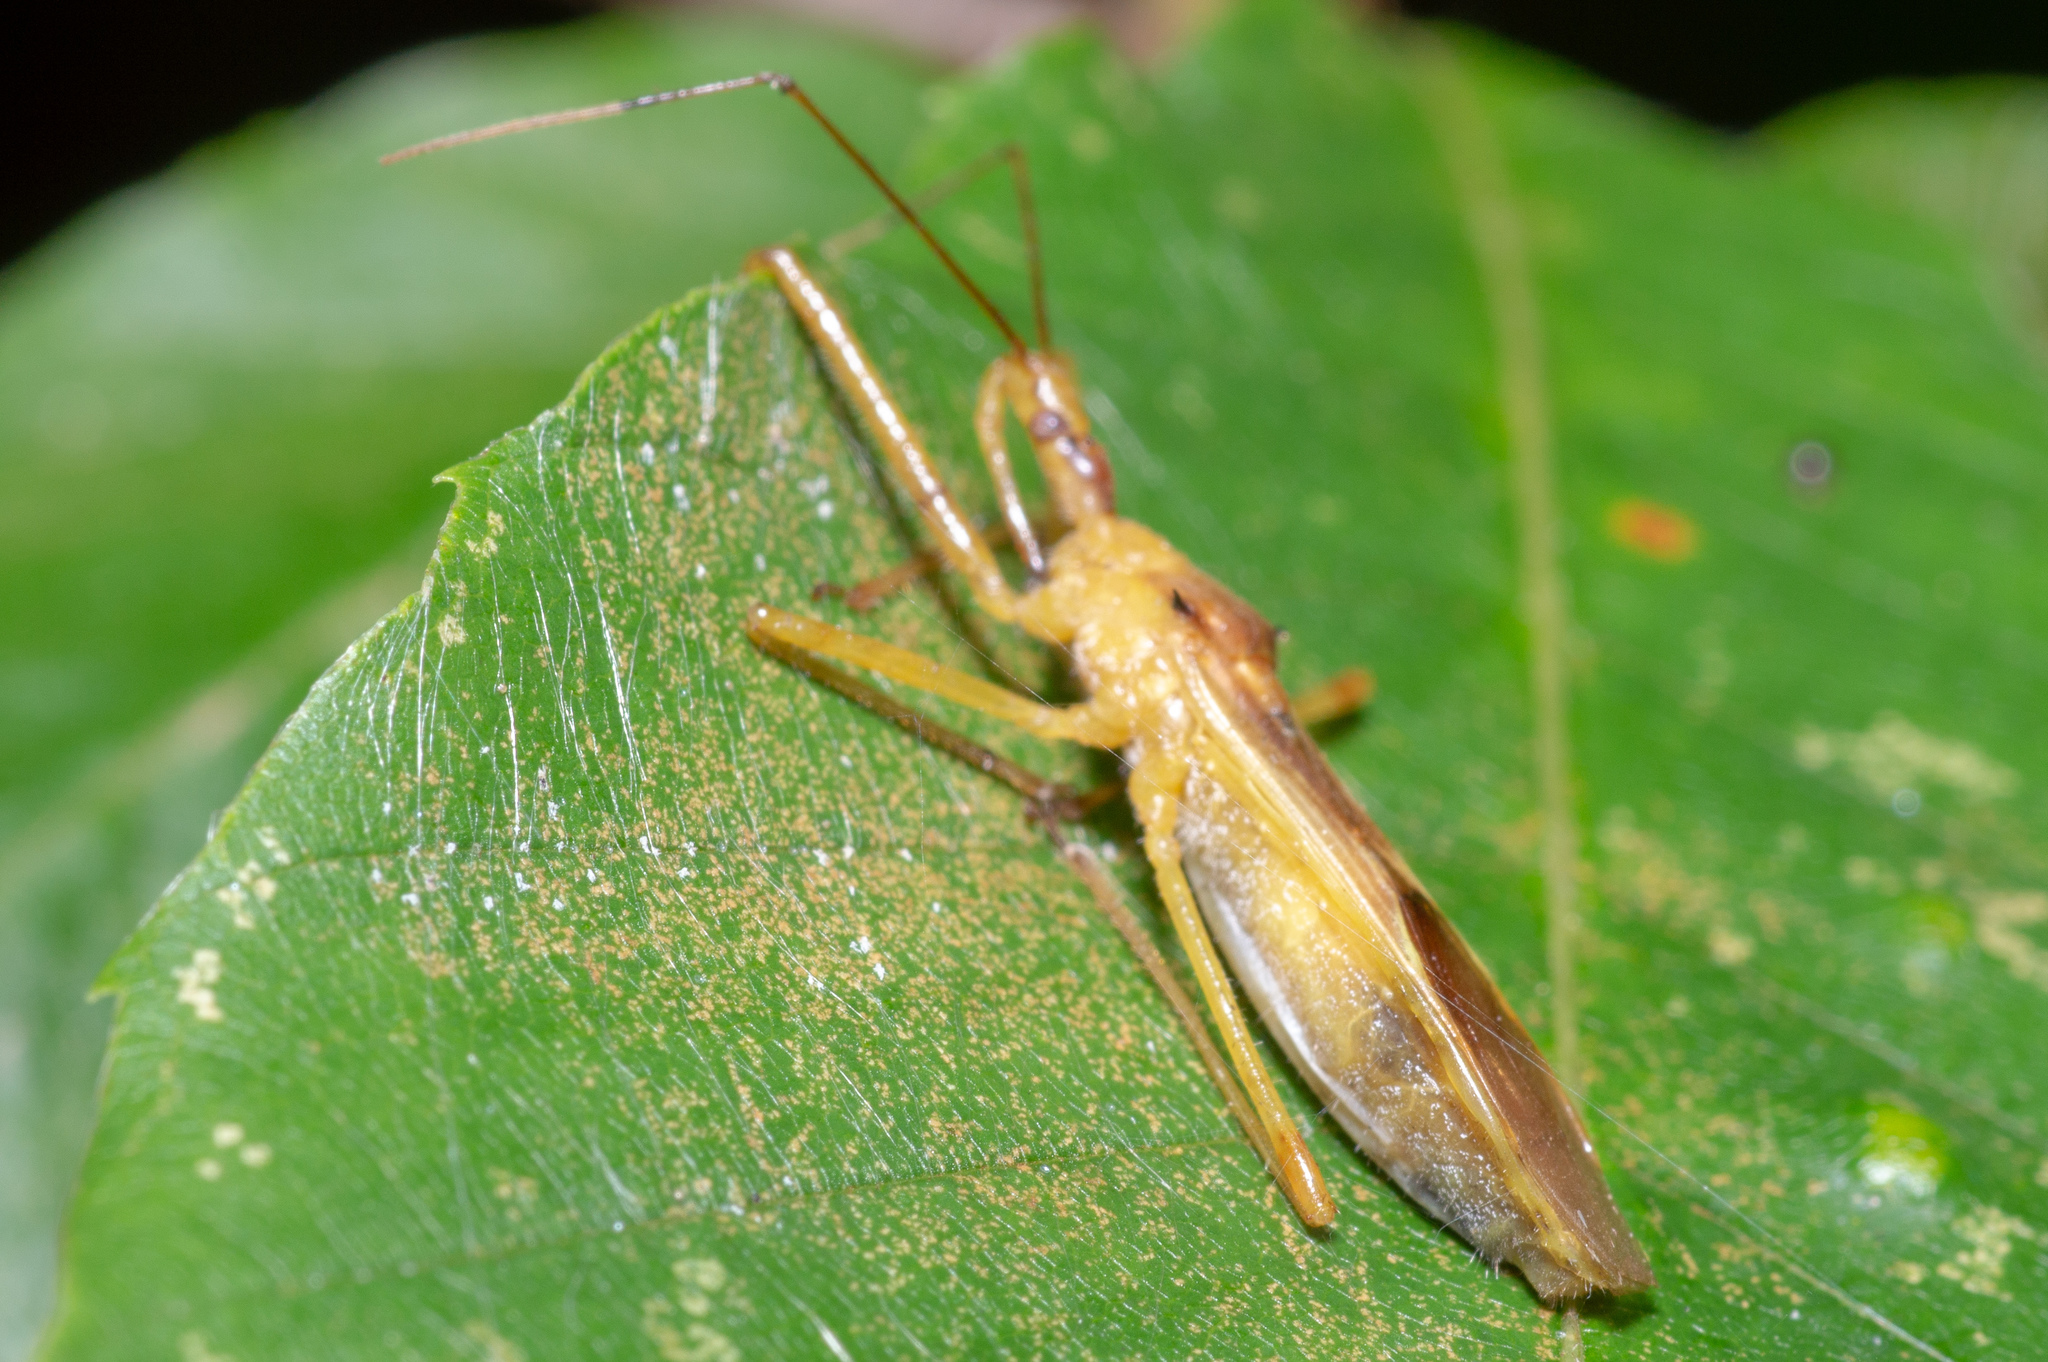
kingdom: Animalia
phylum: Arthropoda
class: Insecta
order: Hemiptera
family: Reduviidae
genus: Zelus
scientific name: Zelus luridus
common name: Pale green assassin bug
